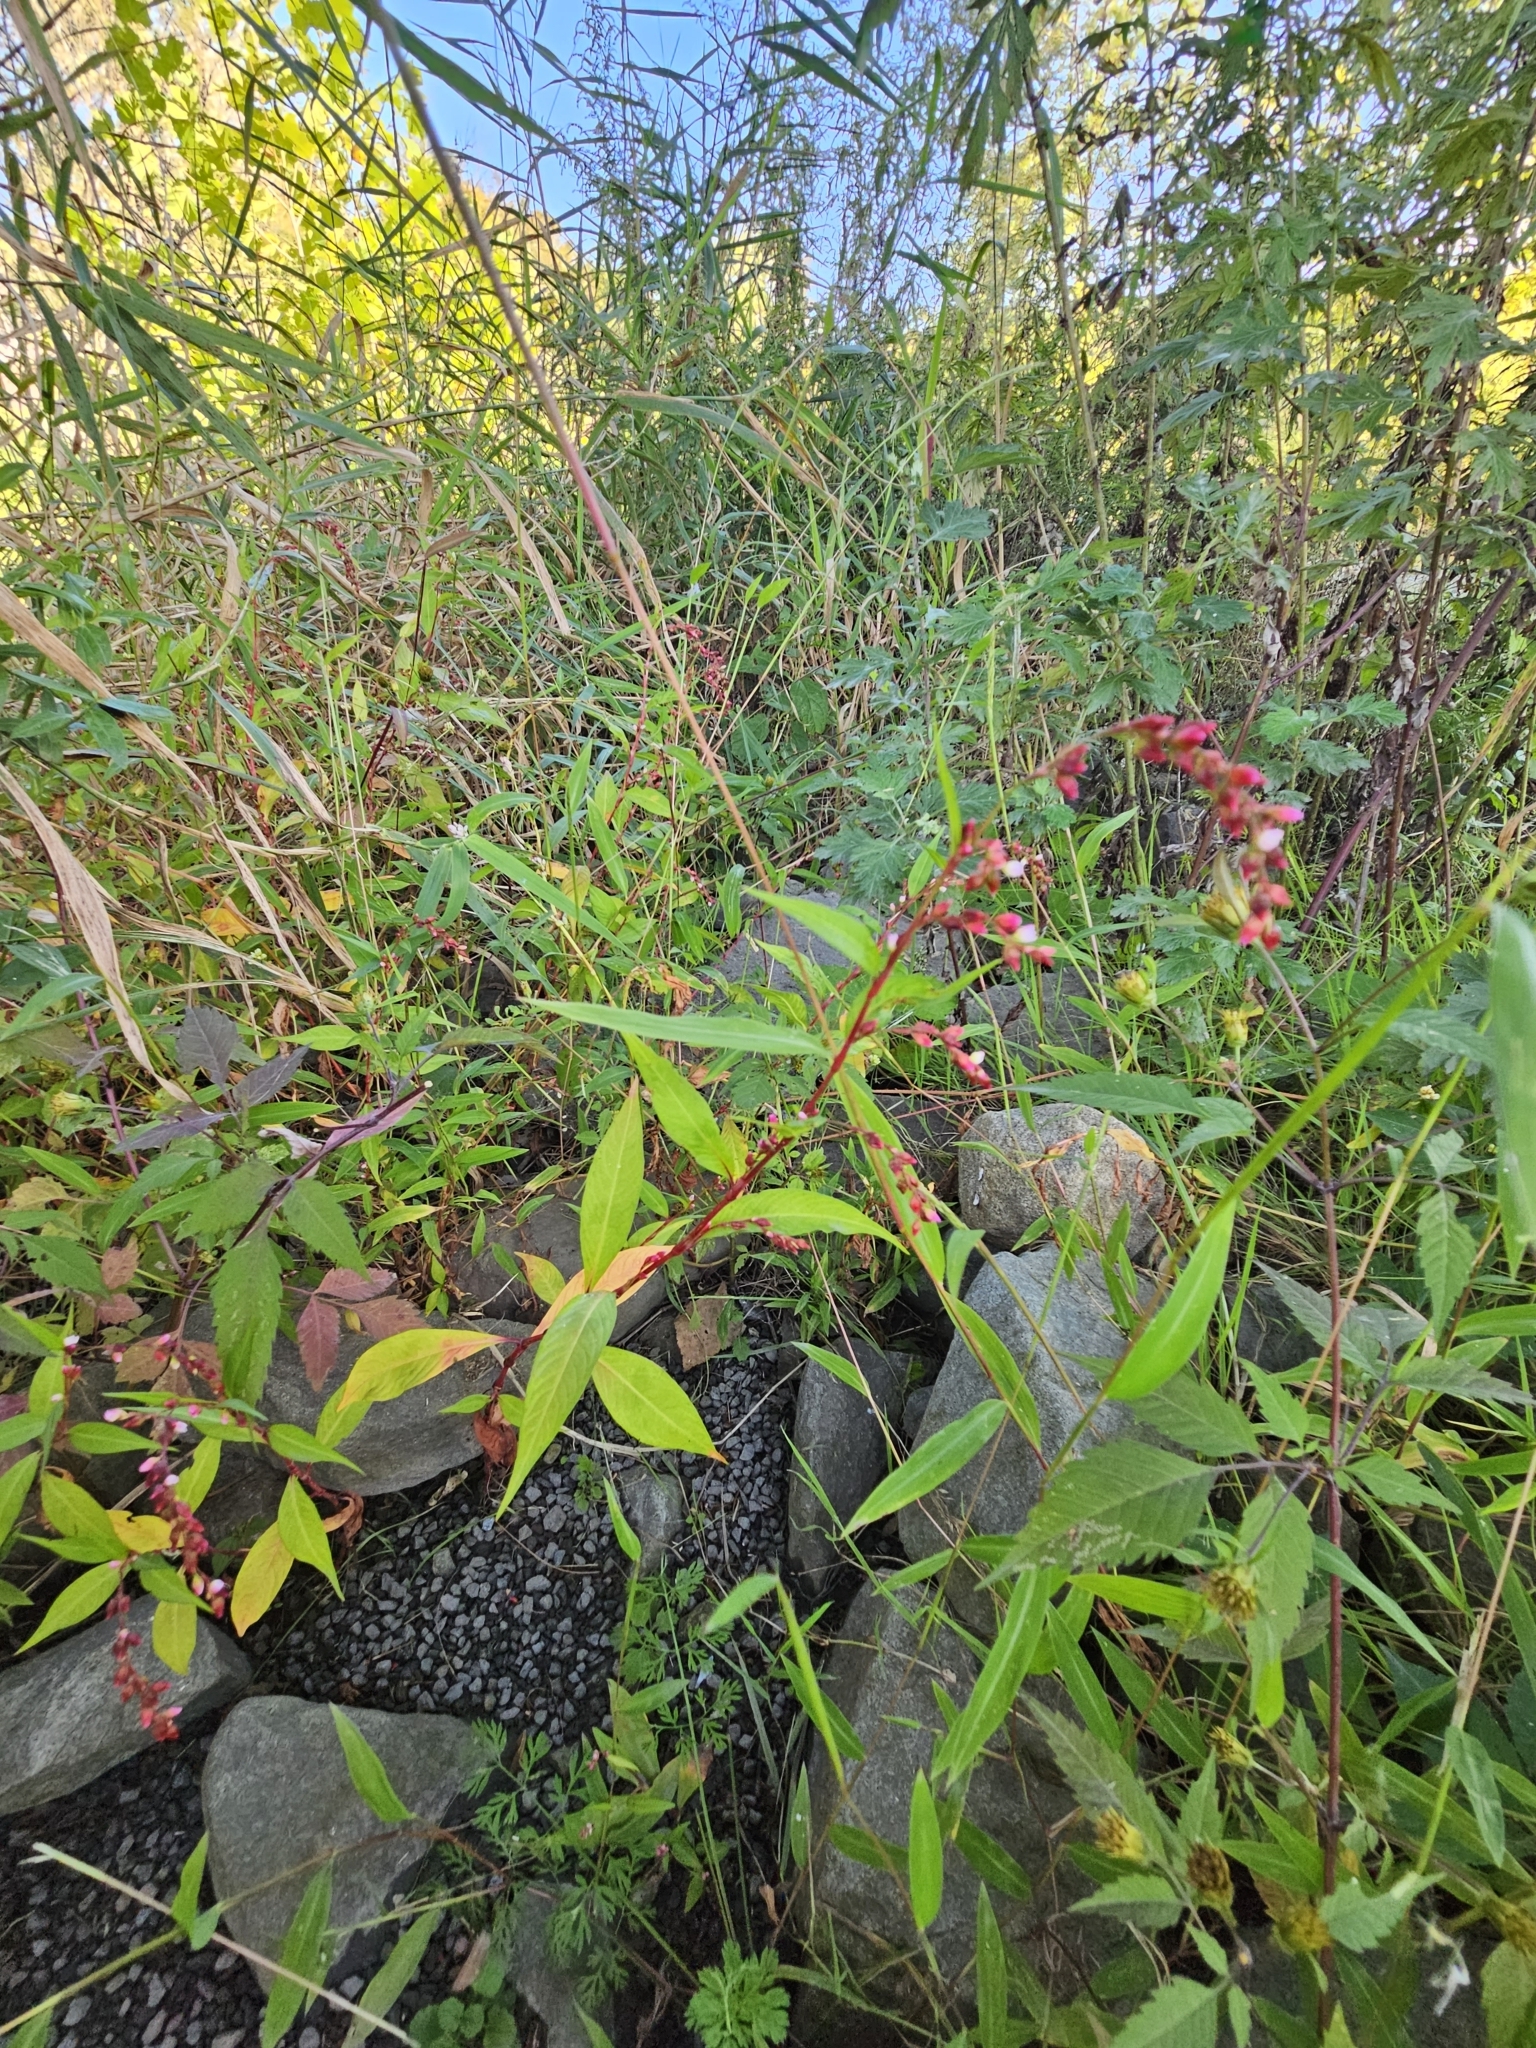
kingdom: Plantae
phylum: Tracheophyta
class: Magnoliopsida
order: Caryophyllales
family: Polygonaceae
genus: Persicaria
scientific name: Persicaria hydropiper
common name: Water-pepper
